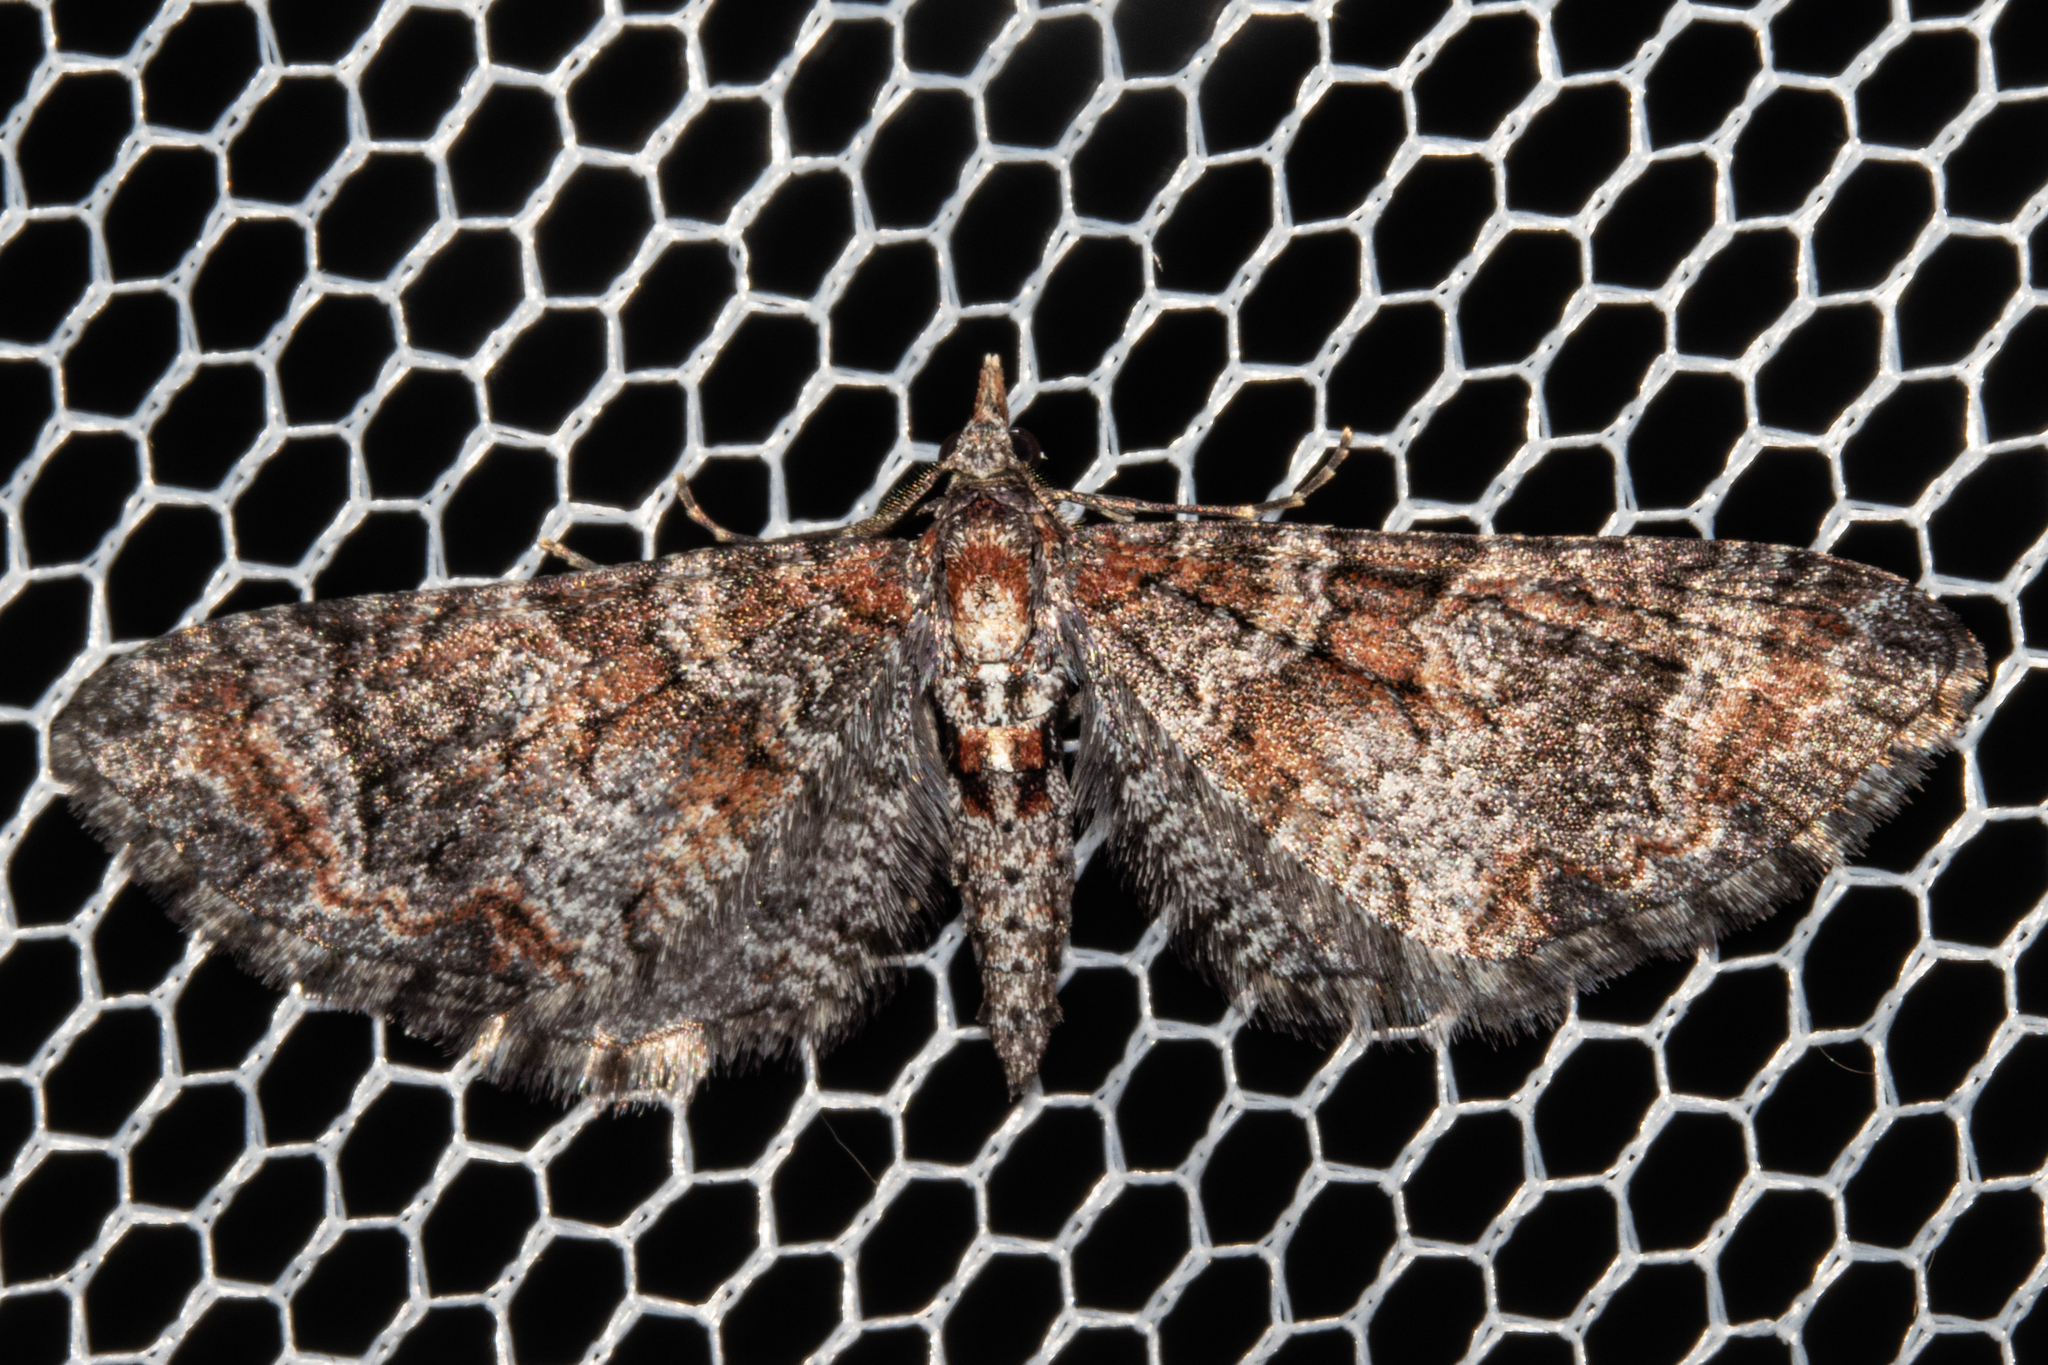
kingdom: Animalia
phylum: Arthropoda
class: Insecta
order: Lepidoptera
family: Geometridae
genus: Pasiphila
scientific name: Pasiphila halianthes
